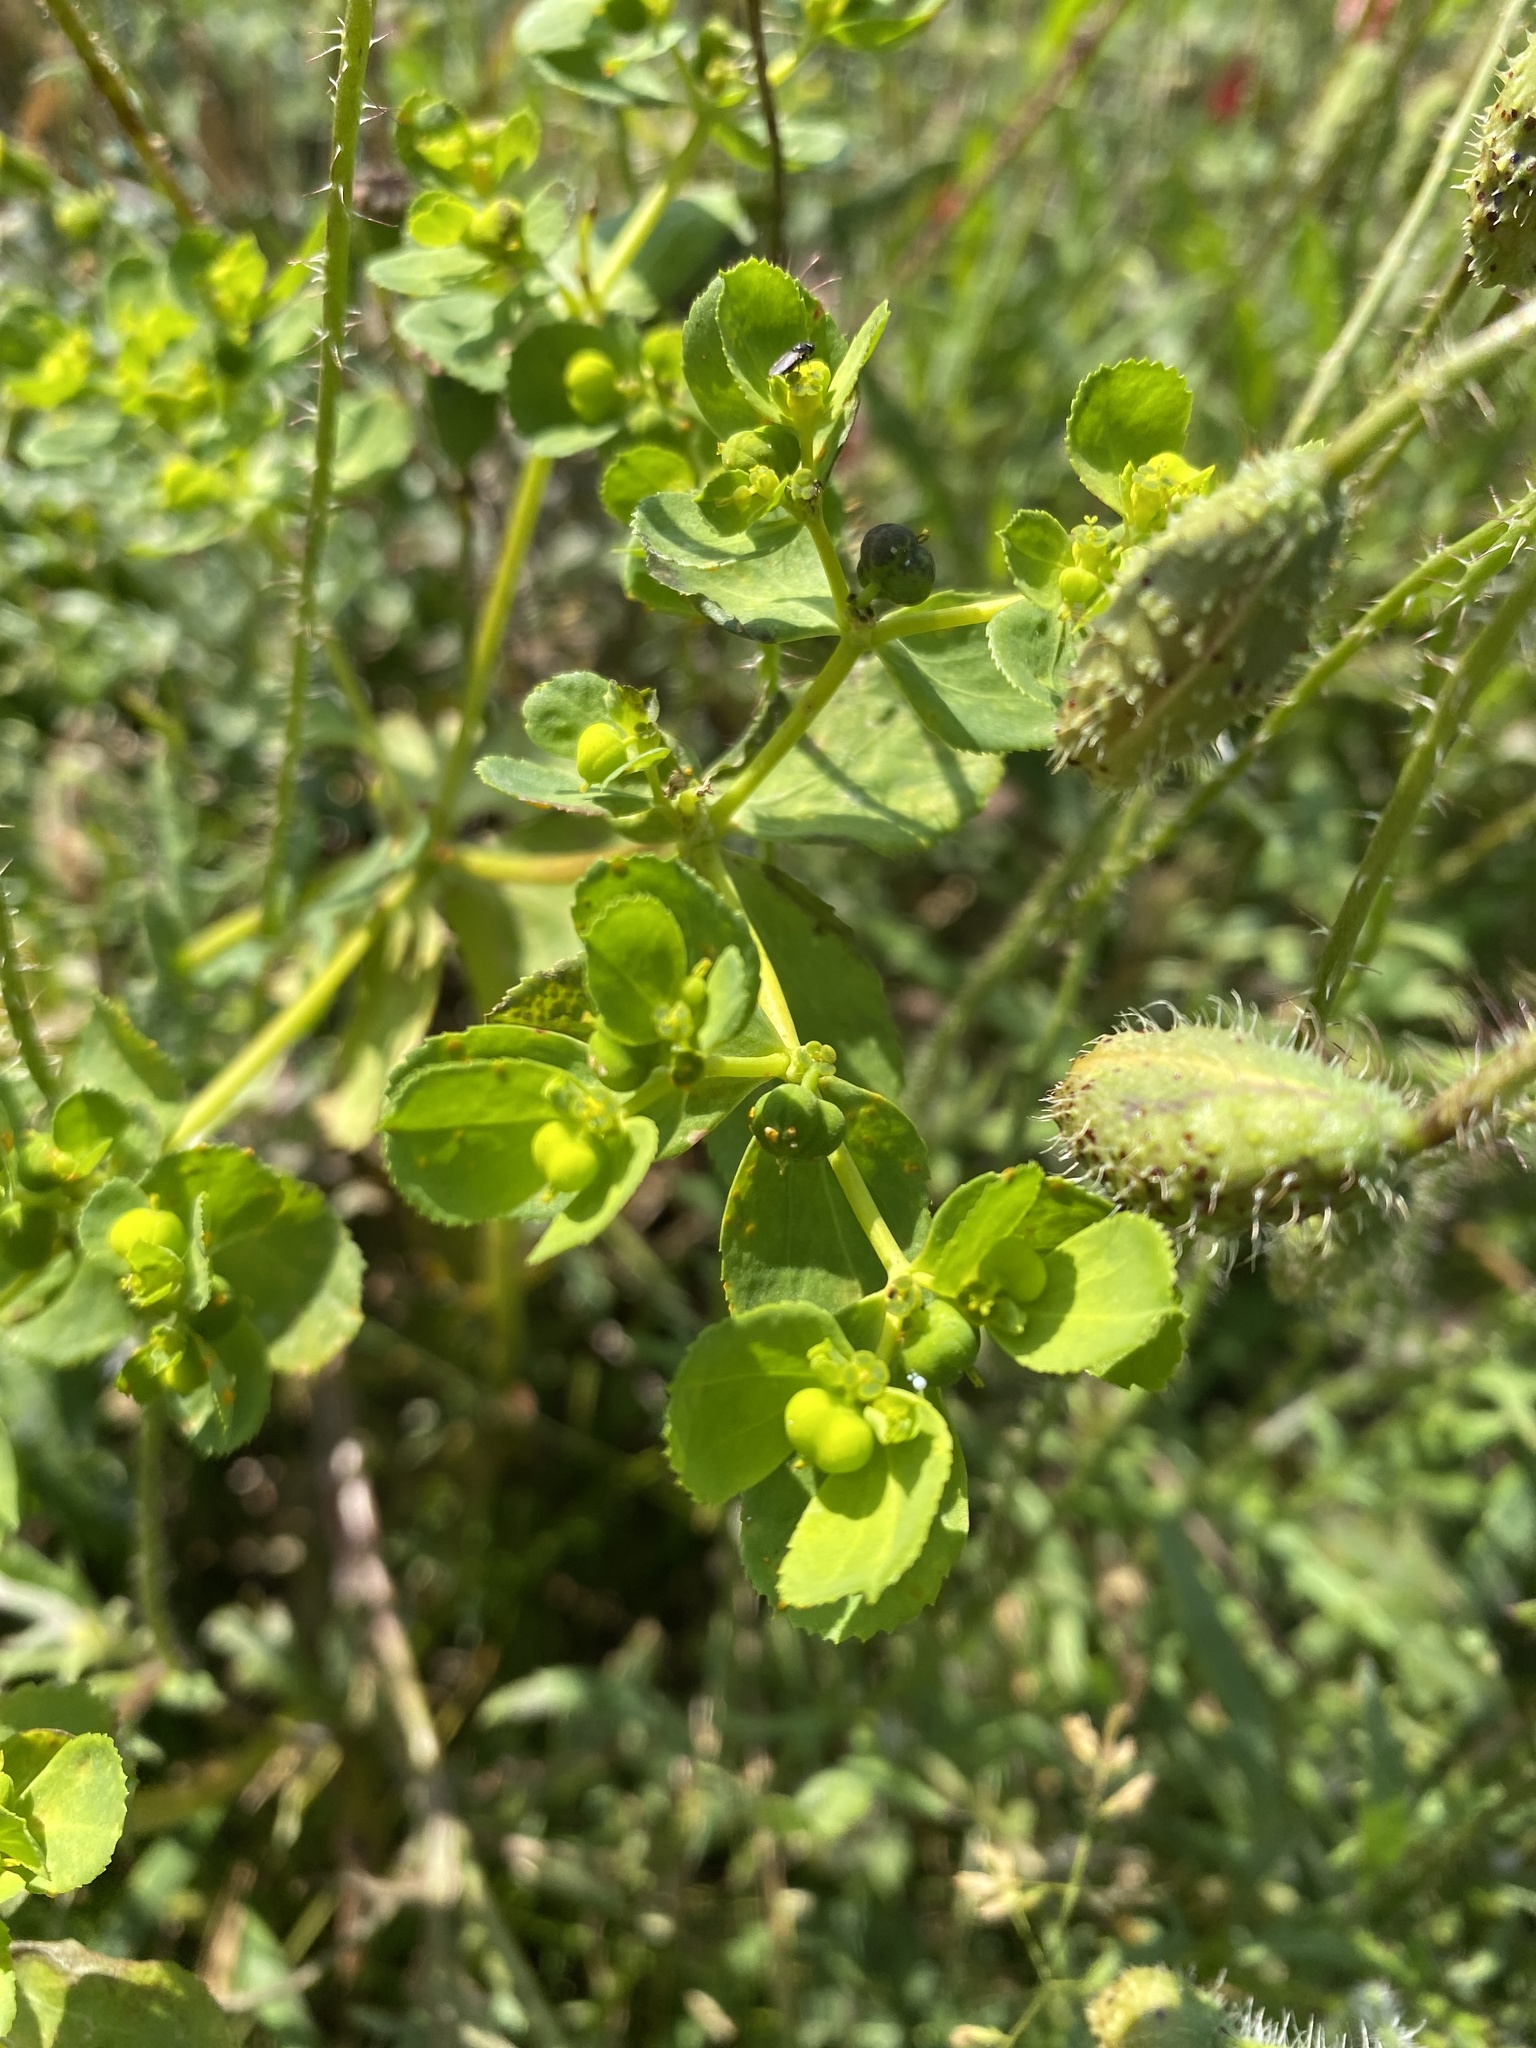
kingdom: Plantae
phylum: Tracheophyta
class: Magnoliopsida
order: Malpighiales
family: Euphorbiaceae
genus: Euphorbia
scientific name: Euphorbia helioscopia
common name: Sun spurge
